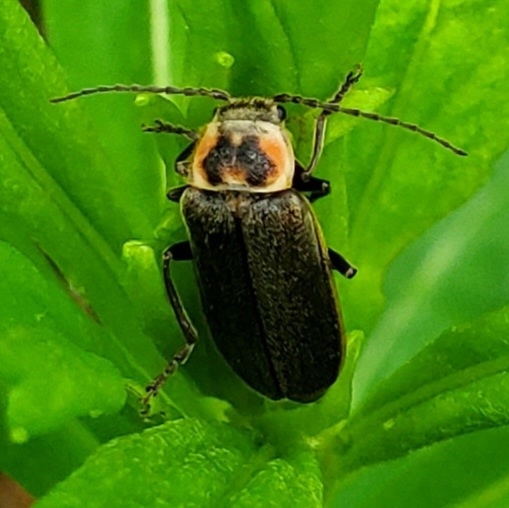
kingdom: Animalia
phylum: Arthropoda
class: Insecta
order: Coleoptera
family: Cantharidae
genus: Atalantycha
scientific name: Atalantycha dentigera
